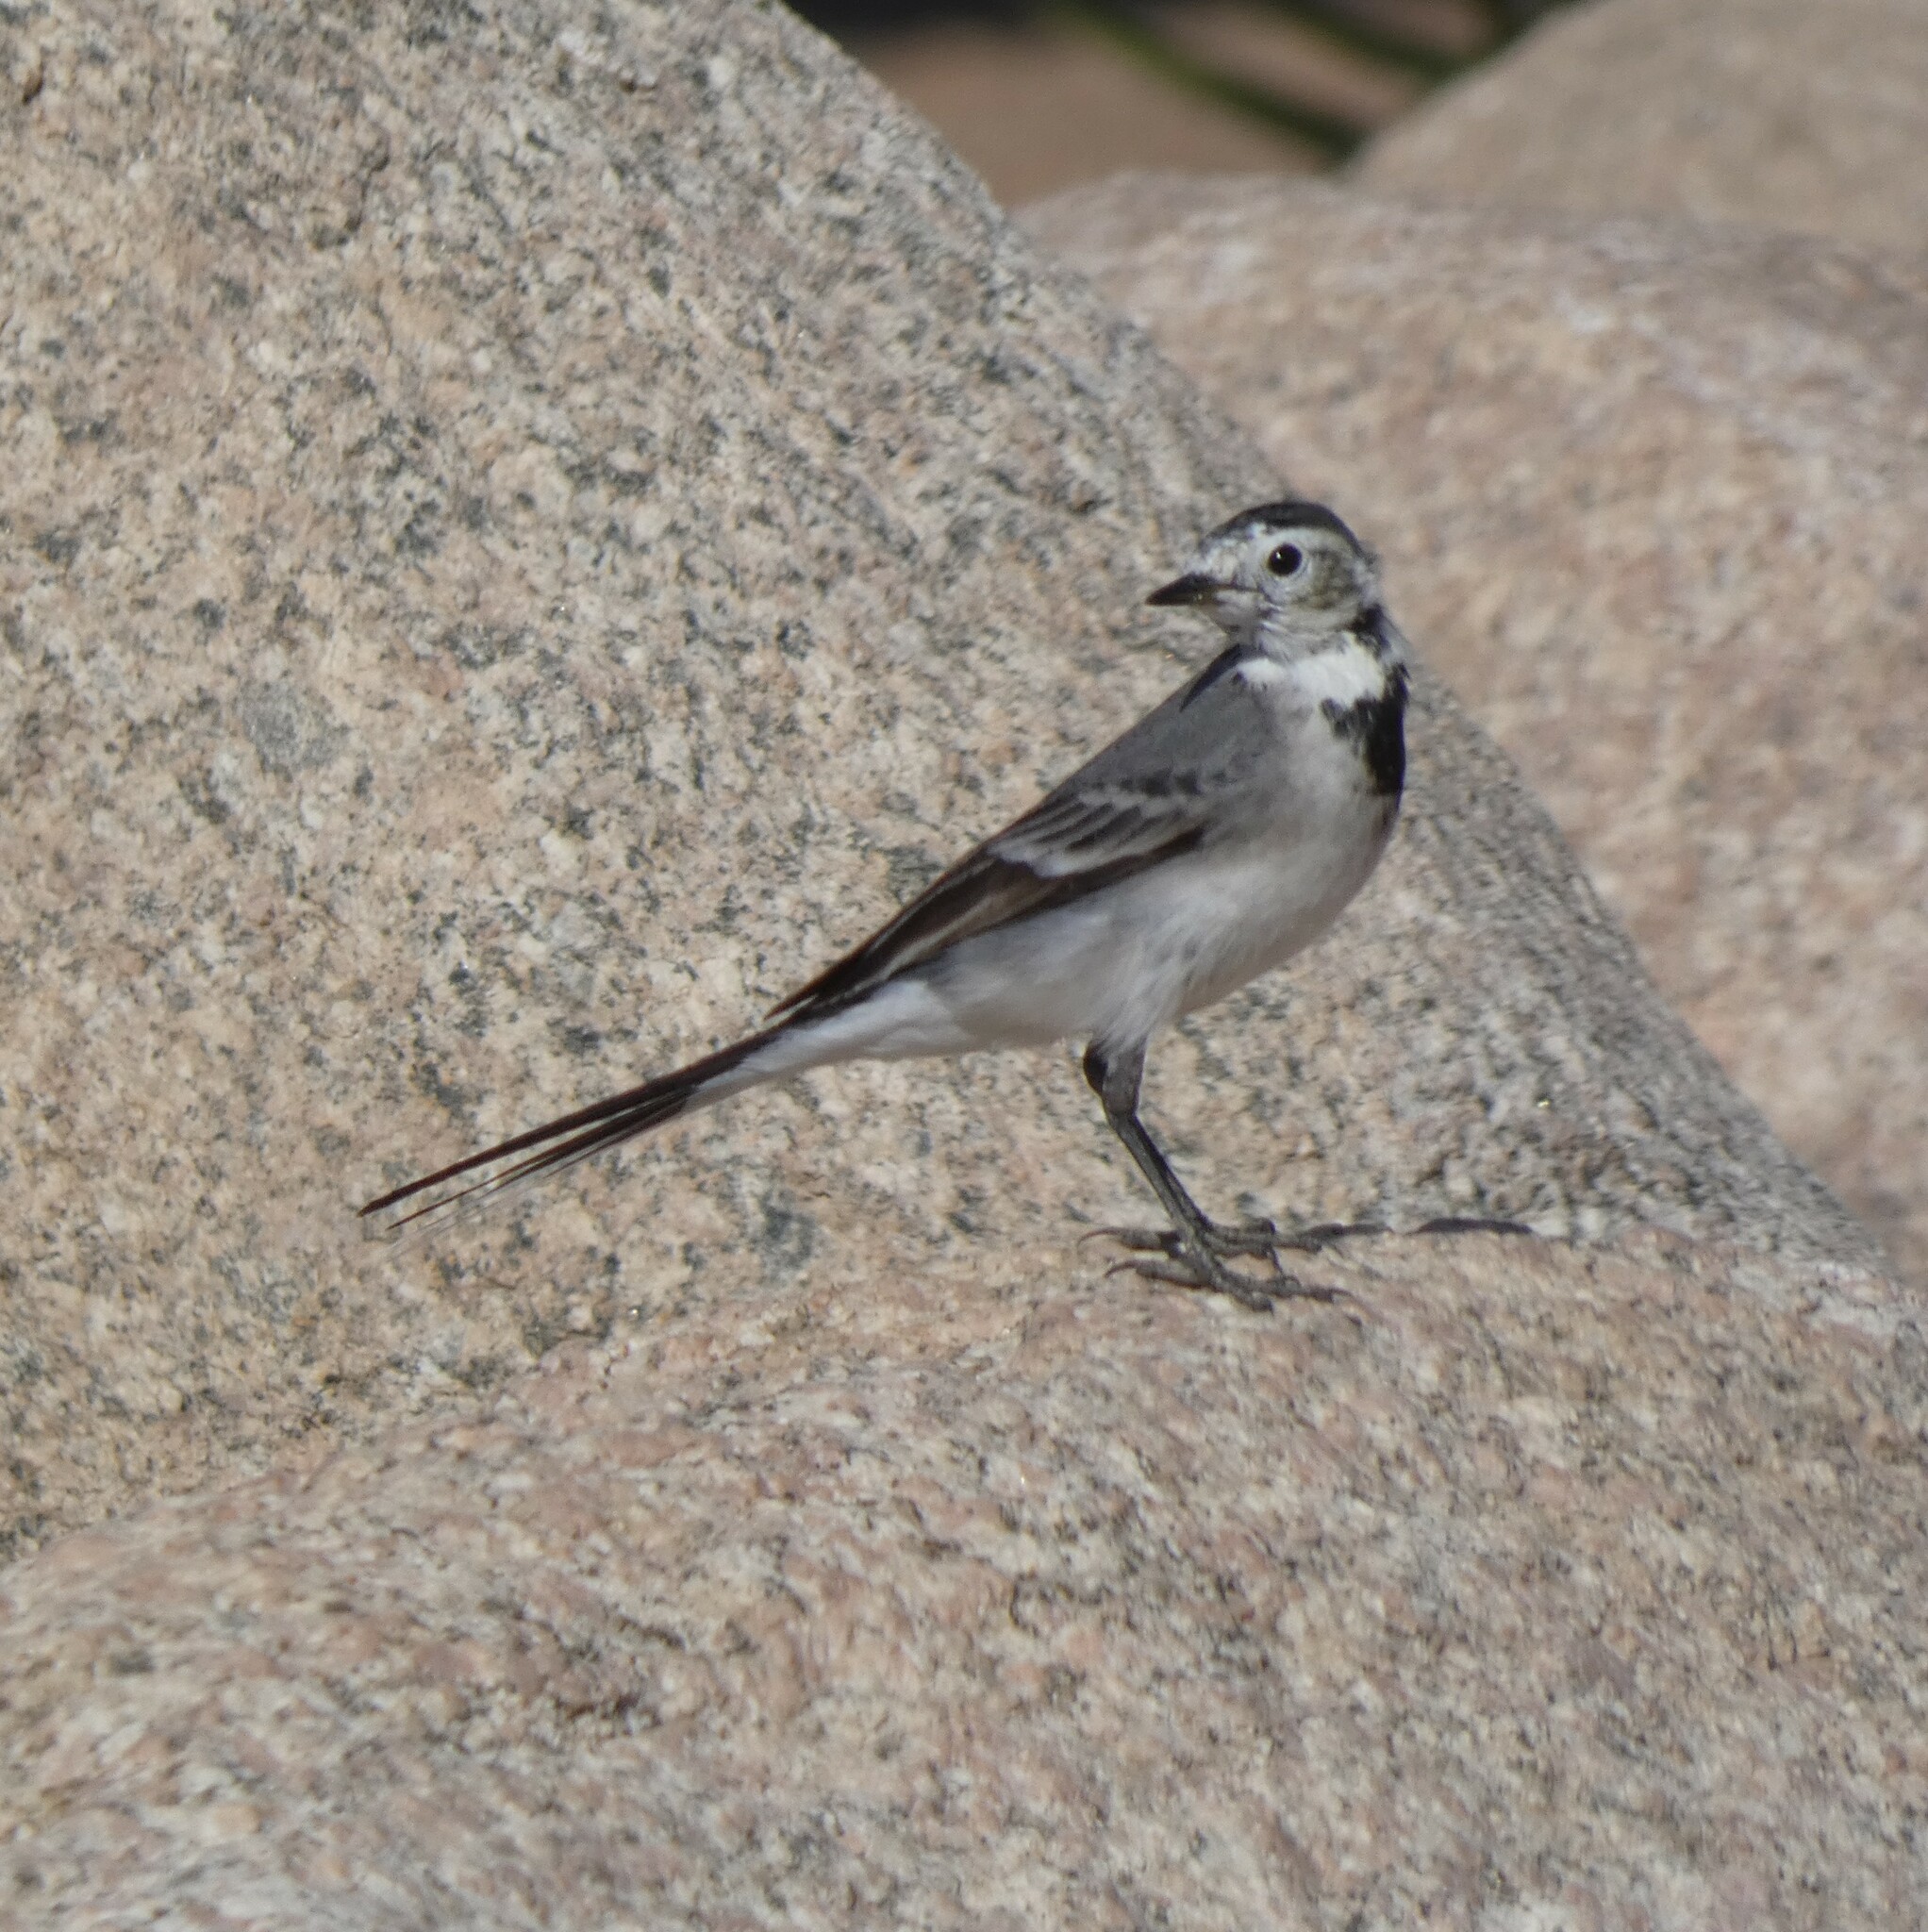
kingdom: Animalia
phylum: Chordata
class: Aves
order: Passeriformes
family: Motacillidae
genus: Motacilla
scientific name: Motacilla alba
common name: White wagtail
